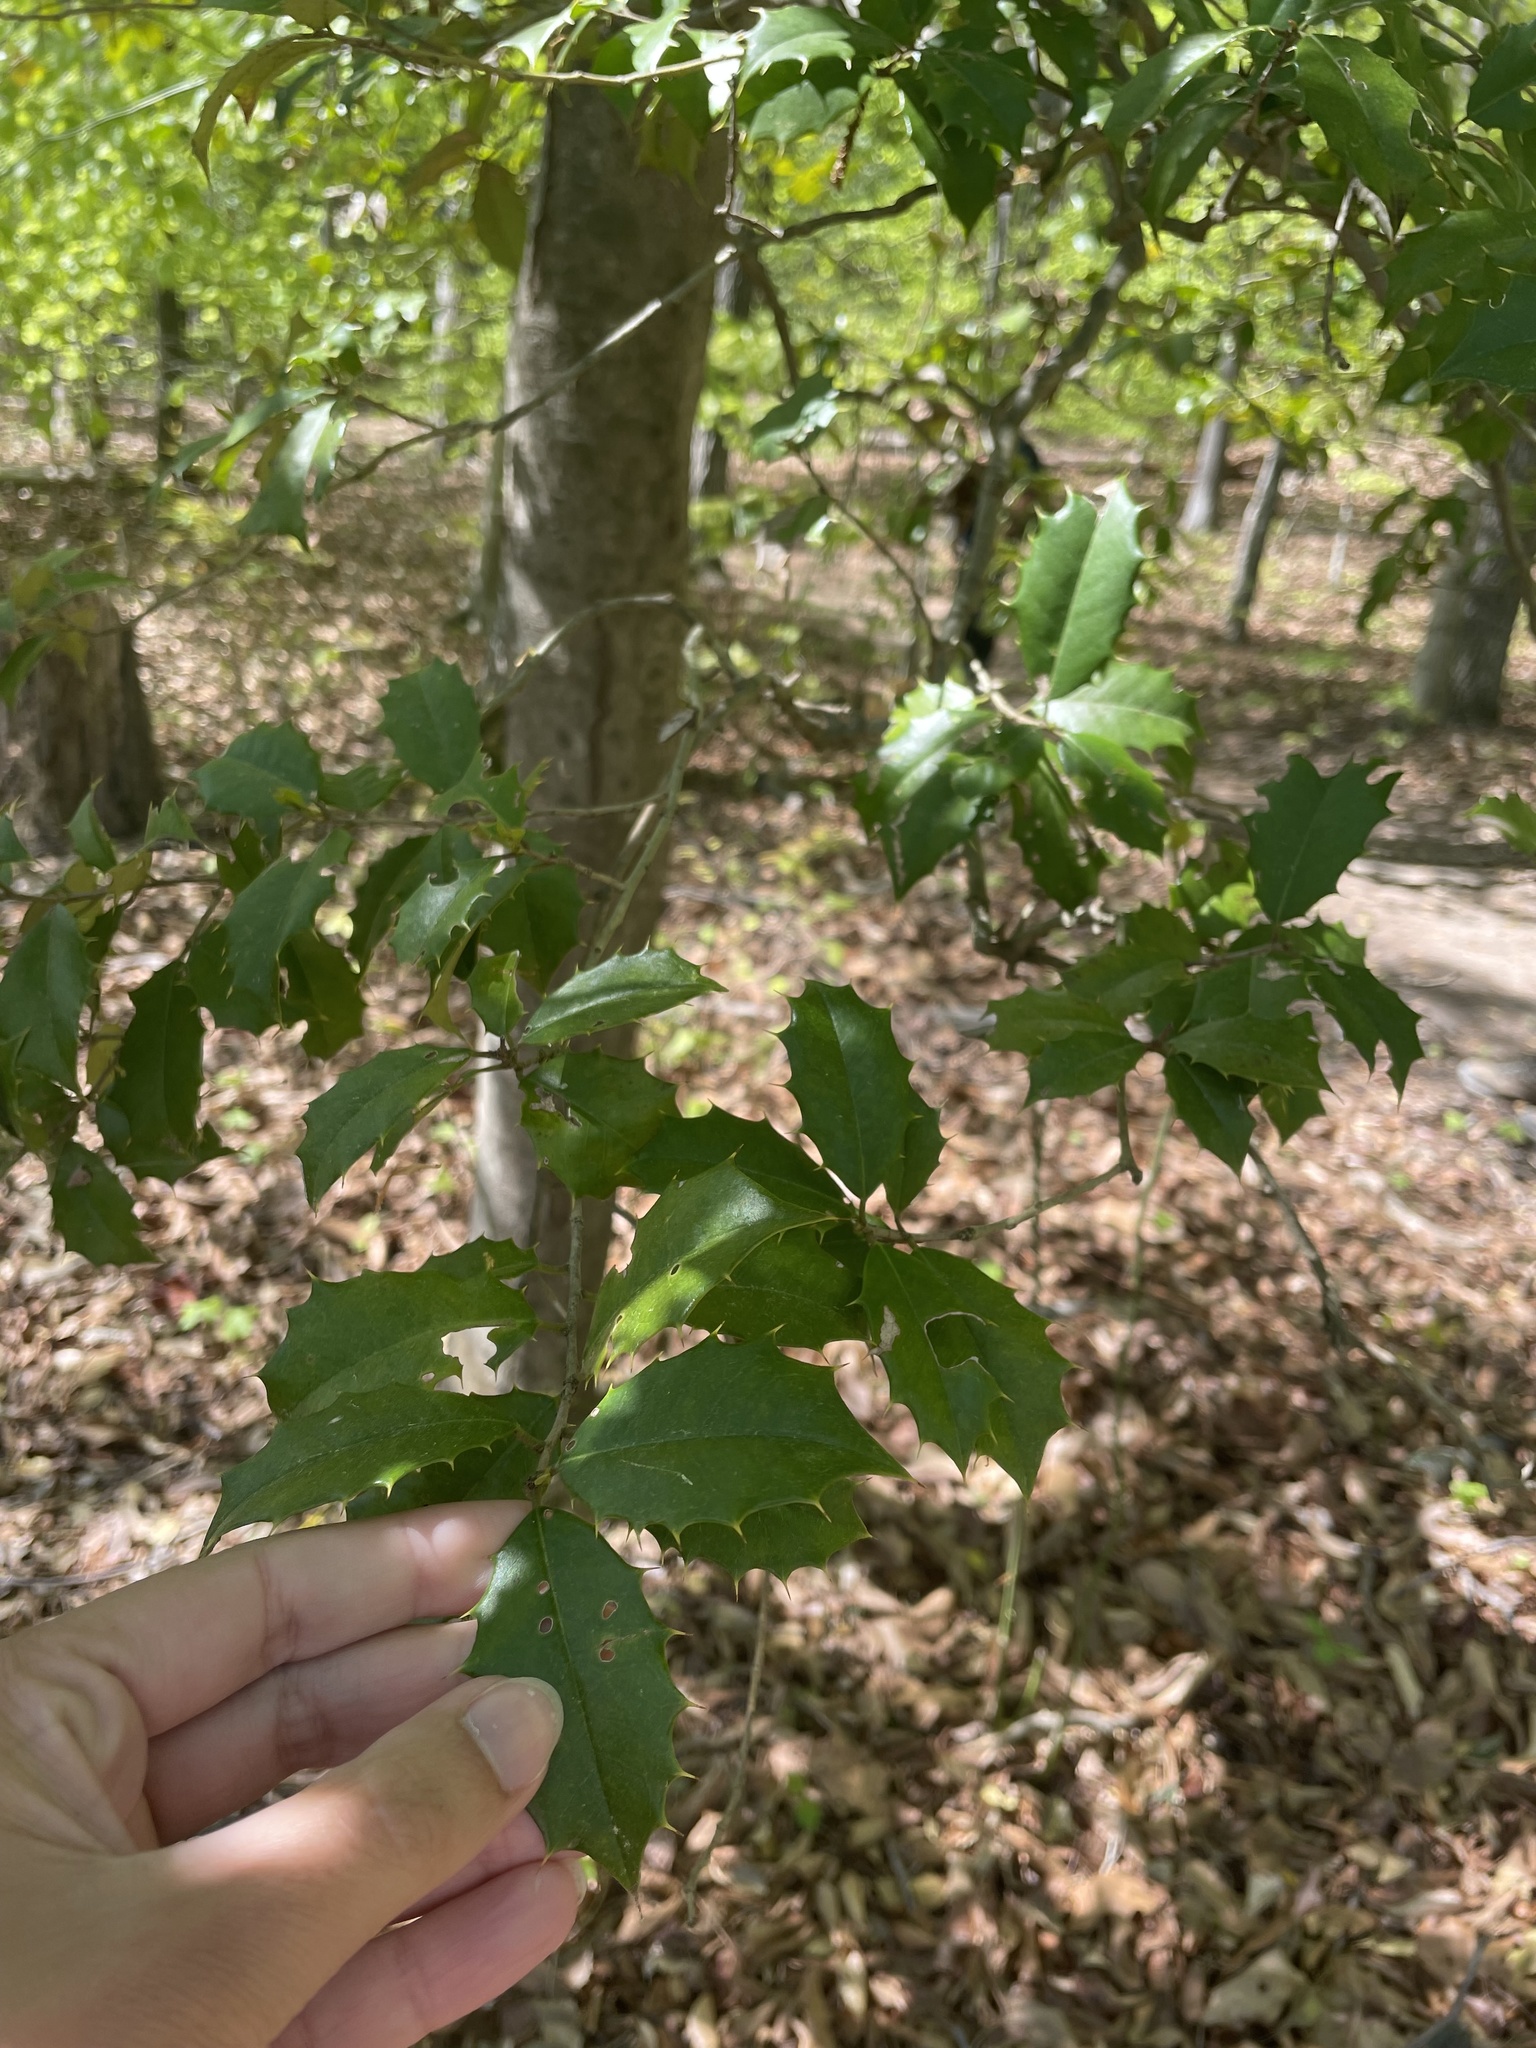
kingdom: Plantae
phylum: Tracheophyta
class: Magnoliopsida
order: Aquifoliales
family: Aquifoliaceae
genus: Ilex
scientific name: Ilex opaca
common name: American holly
